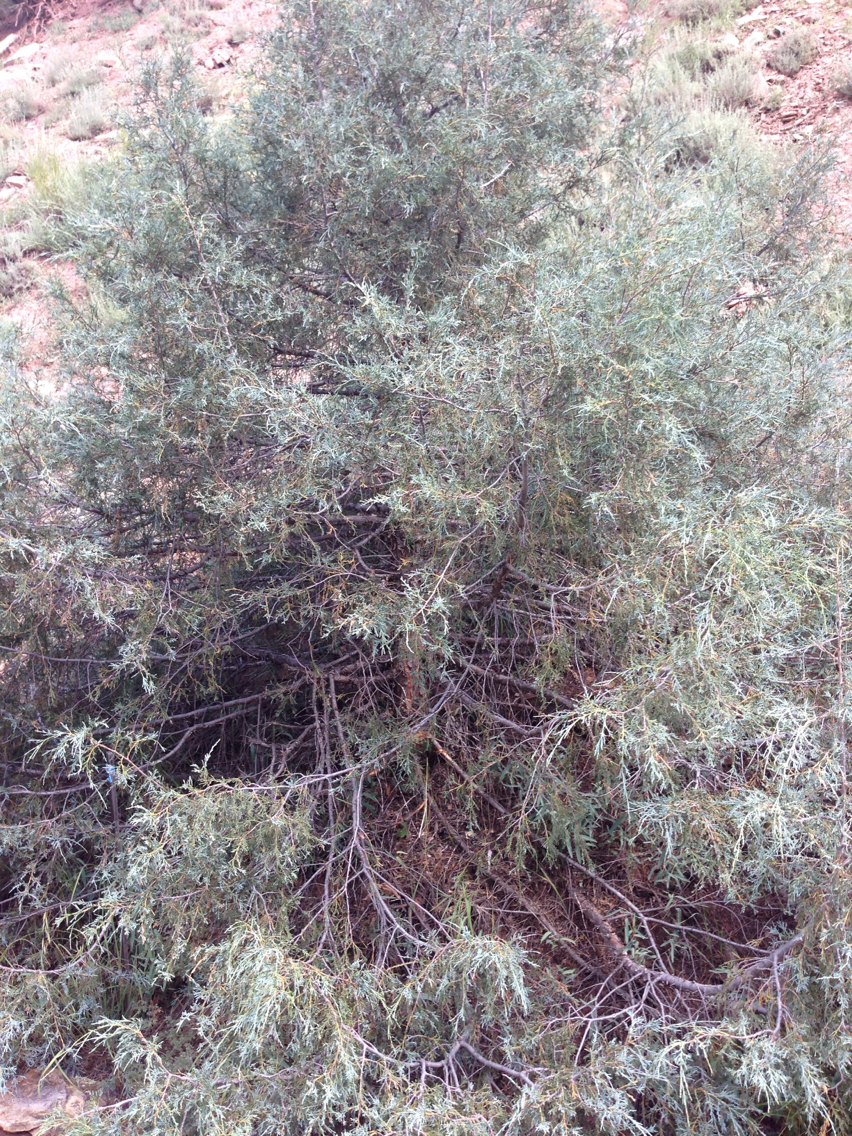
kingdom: Plantae
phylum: Tracheophyta
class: Pinopsida
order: Pinales
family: Cupressaceae
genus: Juniperus
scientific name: Juniperus scopulorum
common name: Rocky mountain juniper
